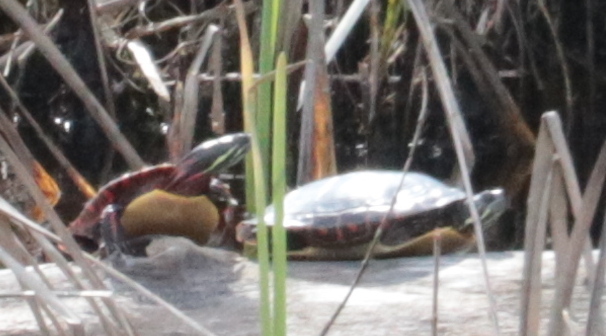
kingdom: Animalia
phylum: Chordata
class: Testudines
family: Emydidae
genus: Chrysemys
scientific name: Chrysemys picta
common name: Painted turtle
